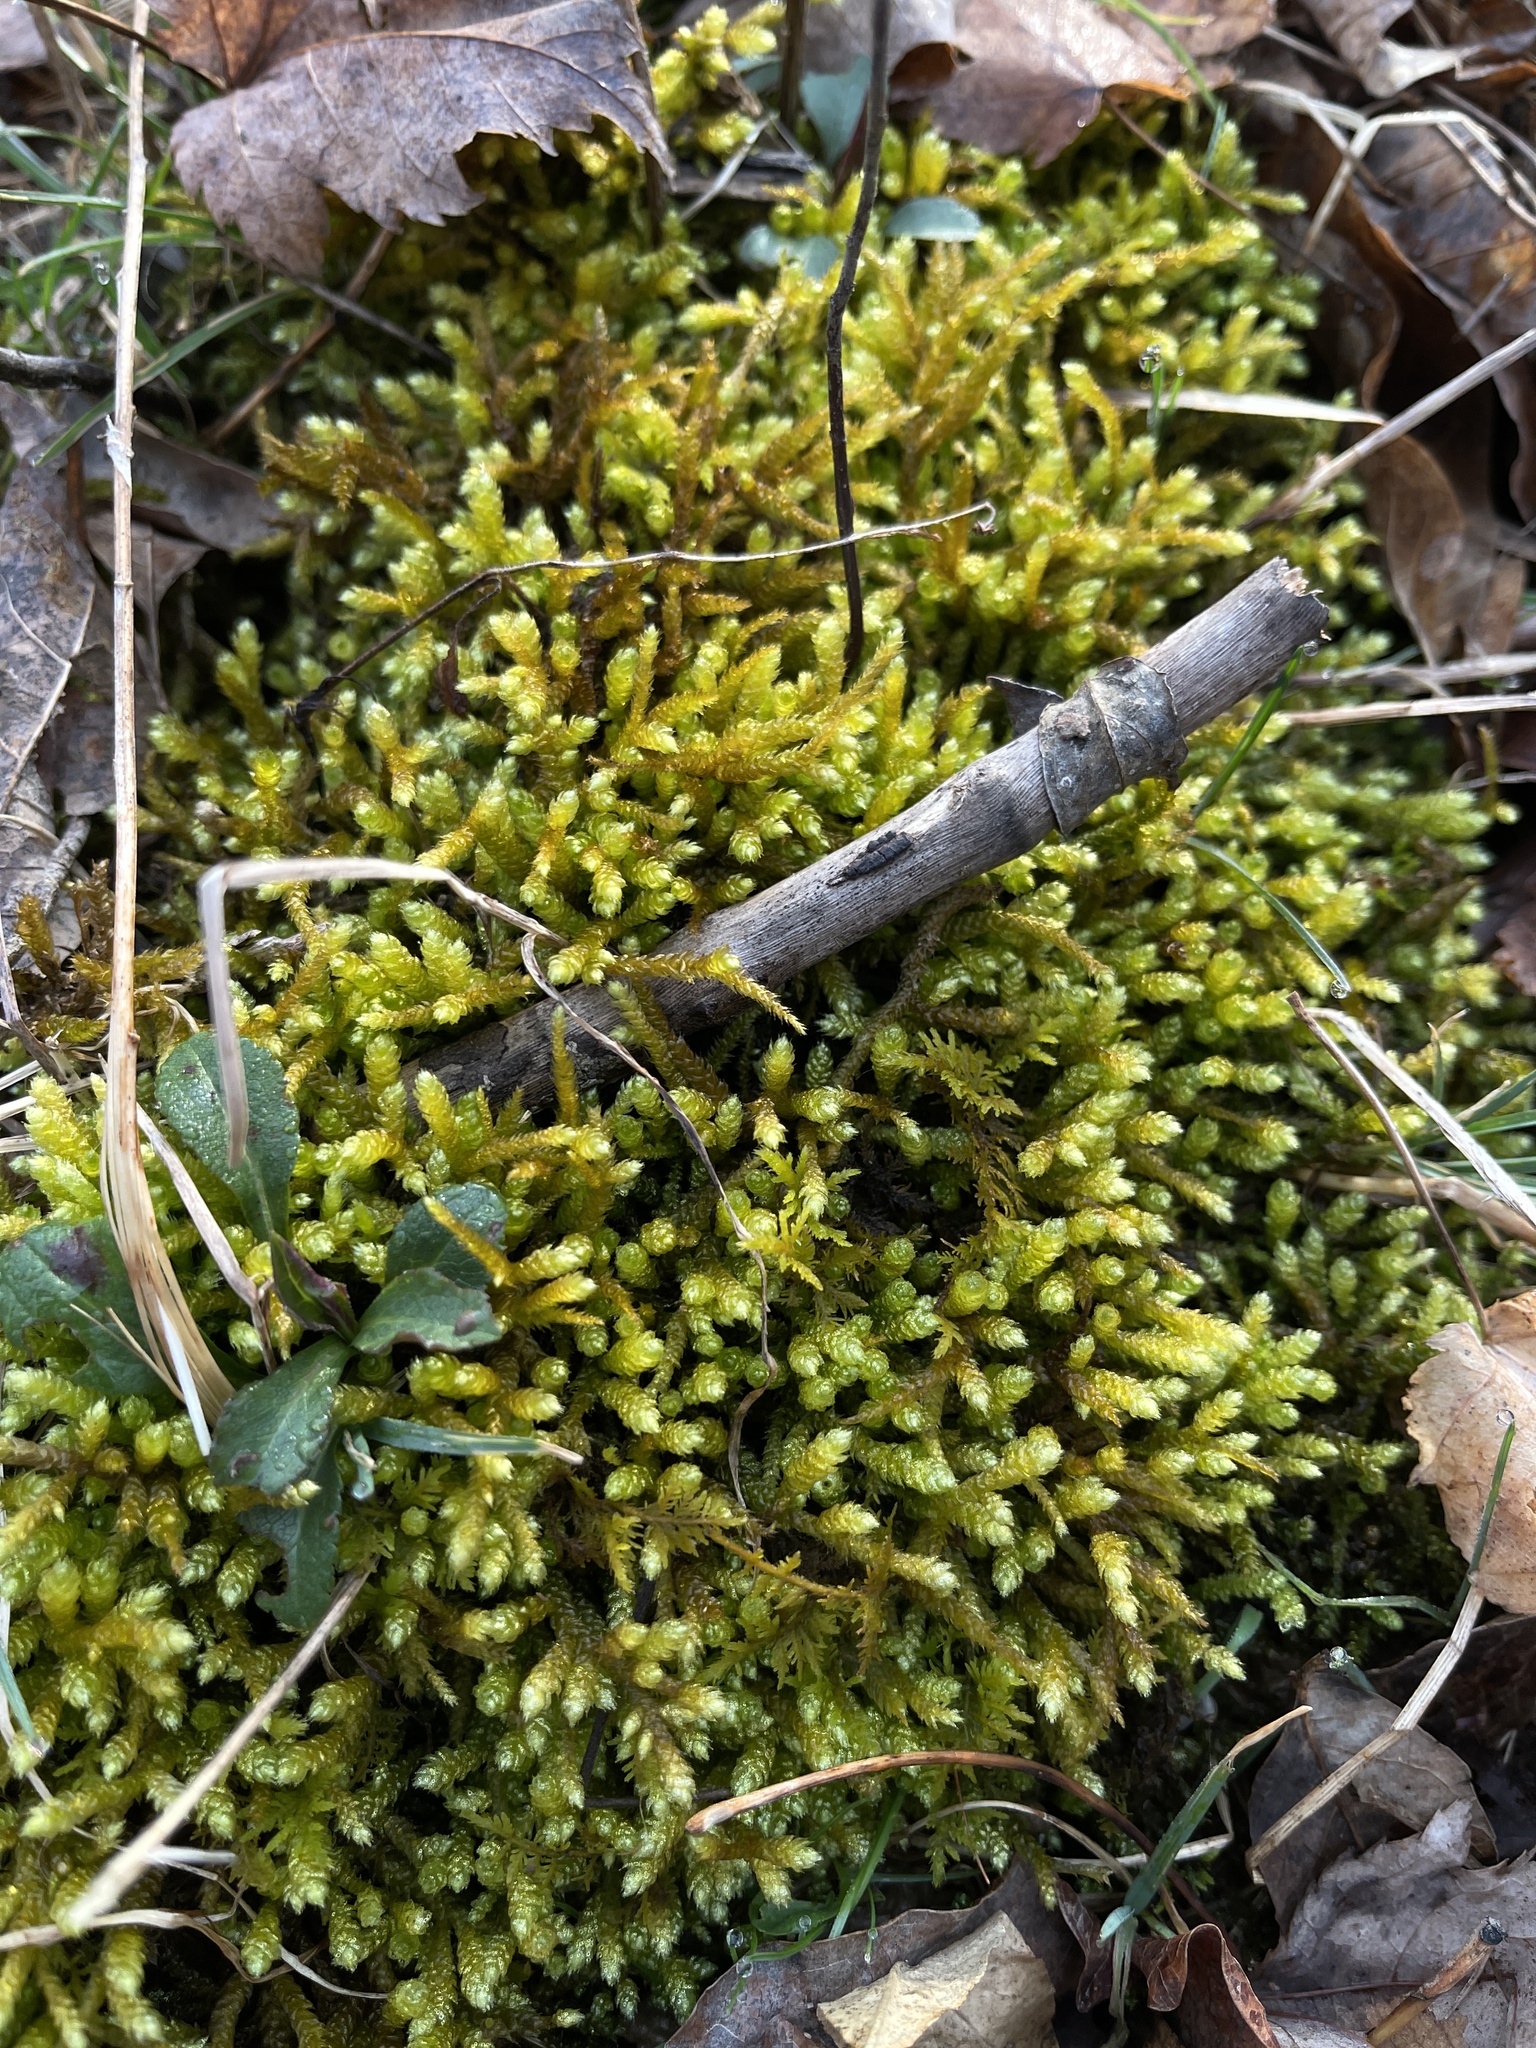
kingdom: Plantae
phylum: Bryophyta
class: Bryopsida
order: Hypnales
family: Entodontaceae
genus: Entodon
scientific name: Entodon seductrix
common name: Round-stemmed entodon moss
